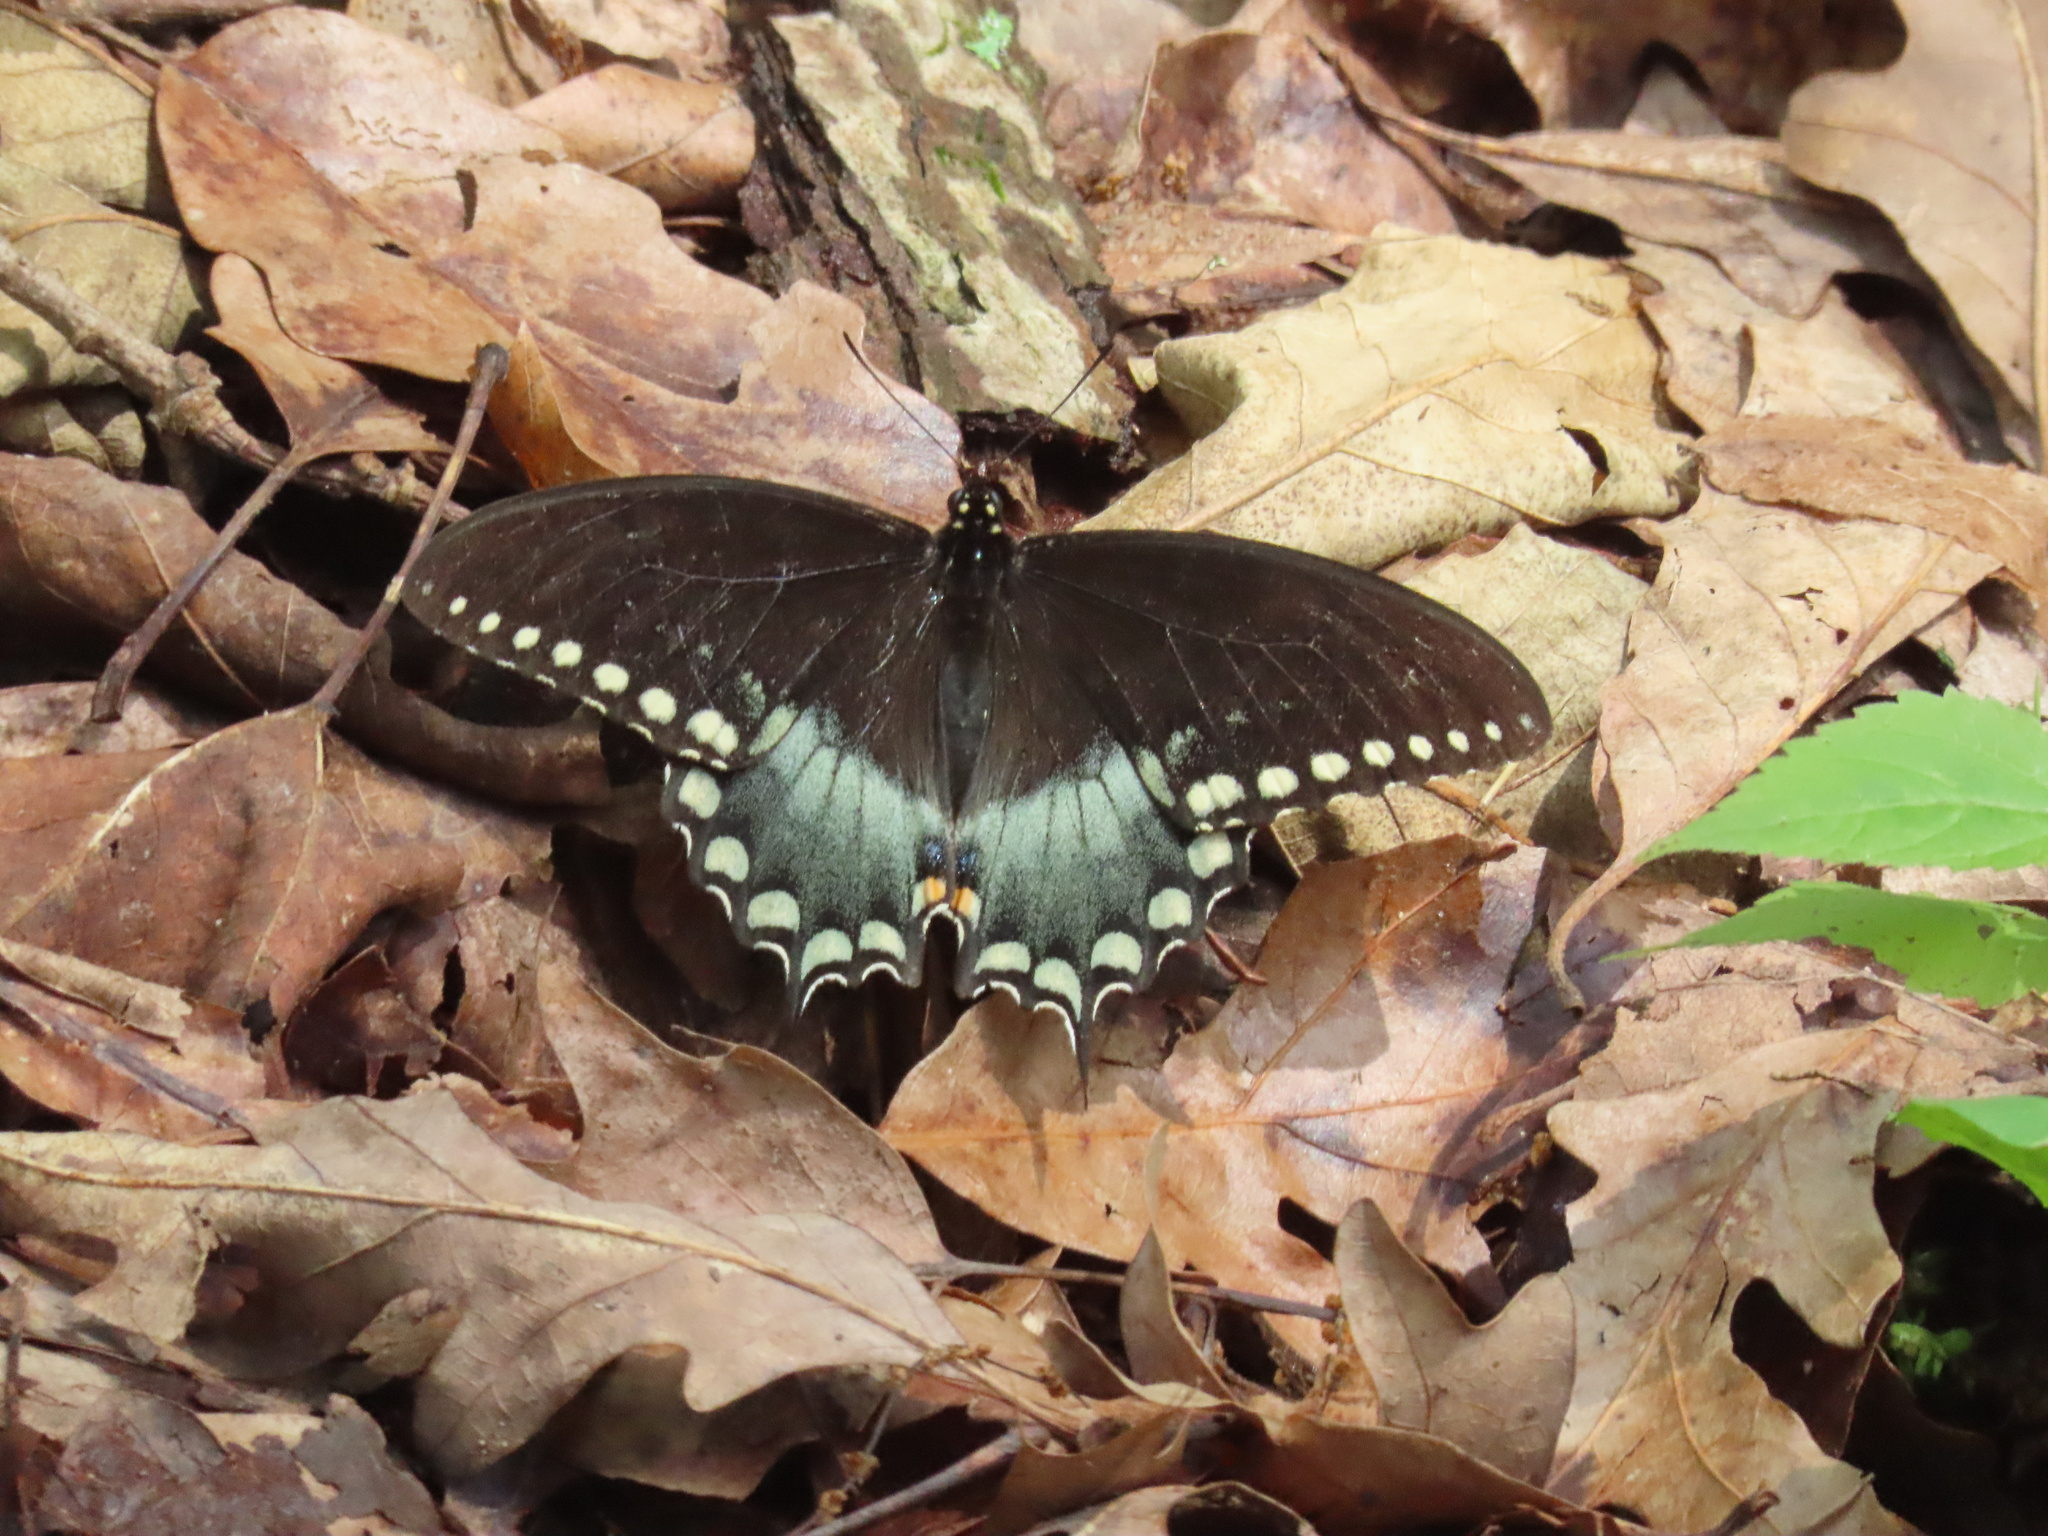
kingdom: Animalia
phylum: Arthropoda
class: Insecta
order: Lepidoptera
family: Papilionidae
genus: Papilio
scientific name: Papilio troilus
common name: Spicebush swallowtail
